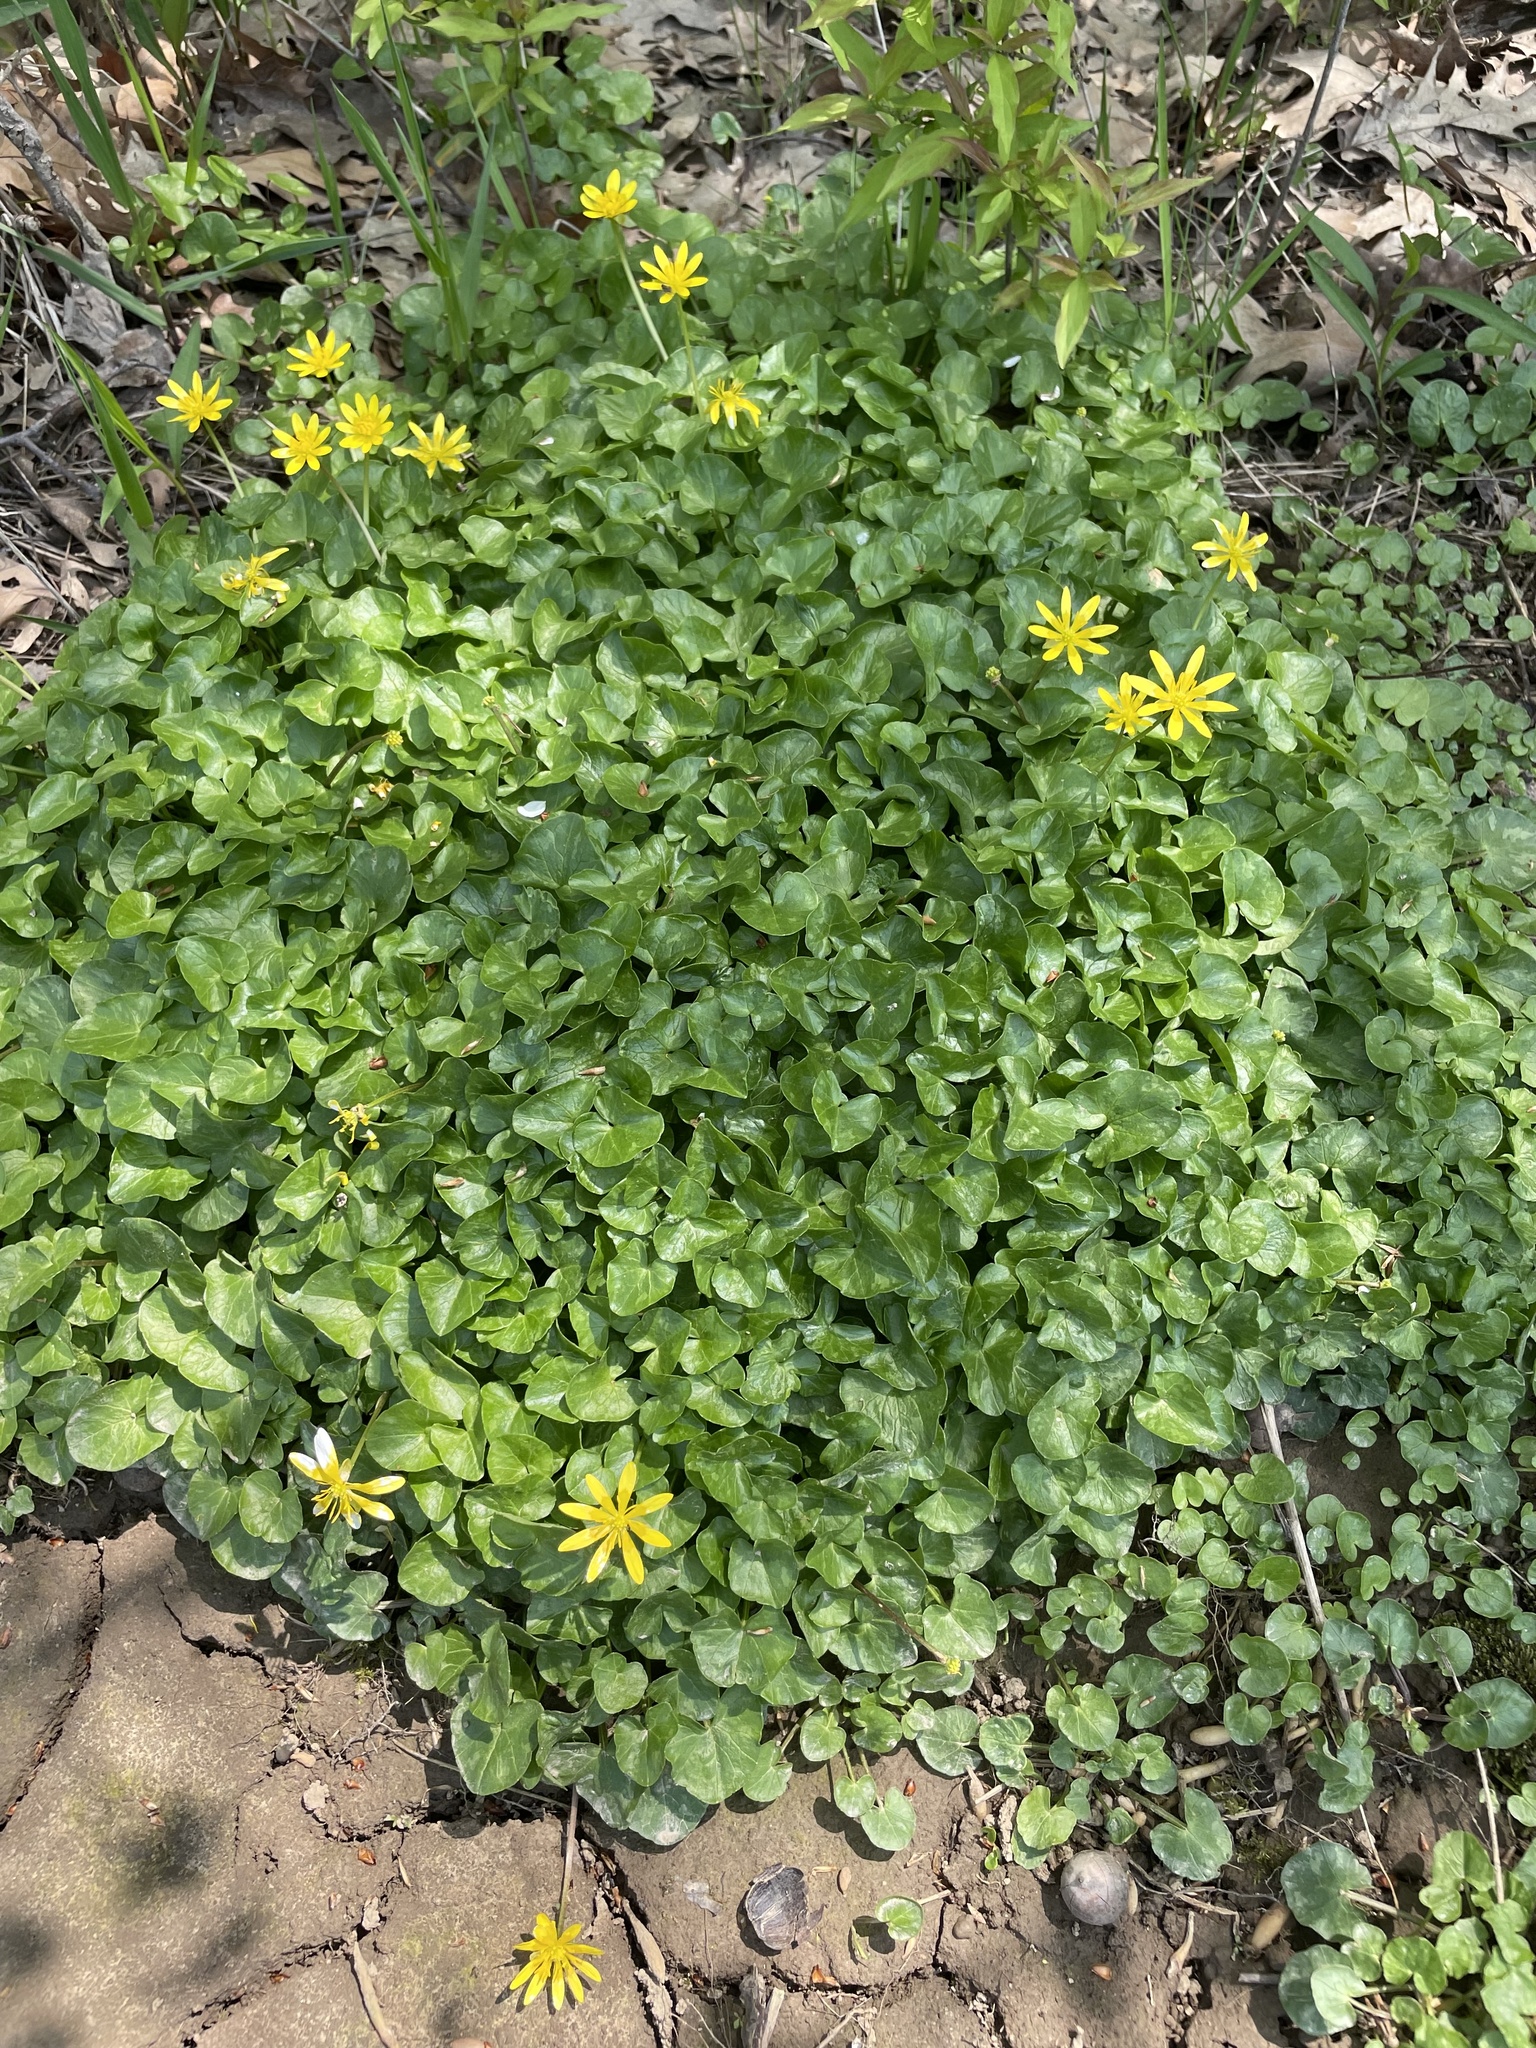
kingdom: Plantae
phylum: Tracheophyta
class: Magnoliopsida
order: Ranunculales
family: Ranunculaceae
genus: Ficaria
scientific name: Ficaria verna
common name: Lesser celandine
